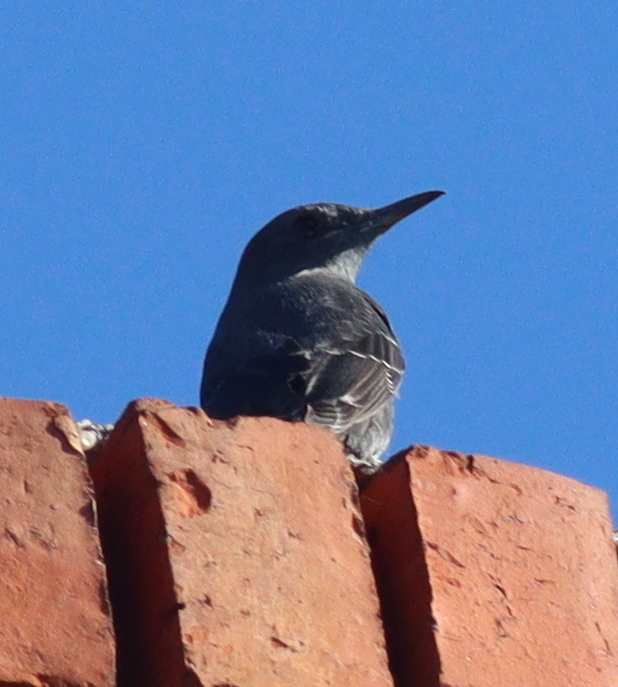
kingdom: Animalia
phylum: Chordata
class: Aves
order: Passeriformes
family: Muscicapidae
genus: Monticola
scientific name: Monticola solitarius
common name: Blue rock thrush
